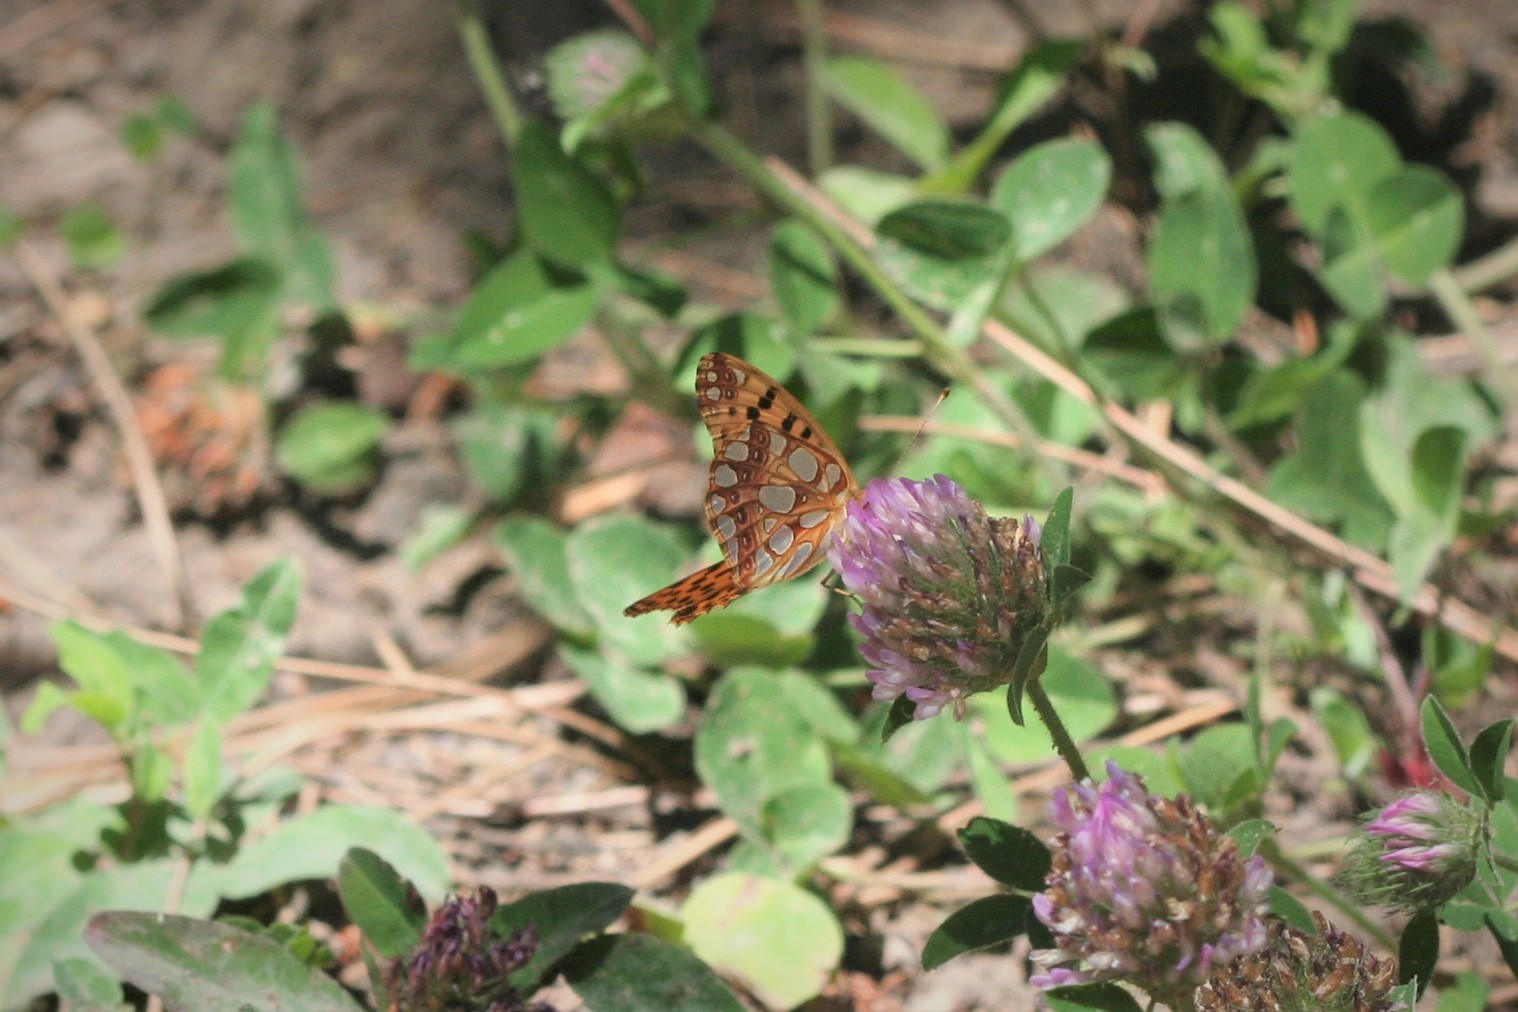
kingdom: Animalia
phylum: Arthropoda
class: Insecta
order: Lepidoptera
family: Nymphalidae
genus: Issoria
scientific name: Issoria lathonia
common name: Queen of spain fritillary
